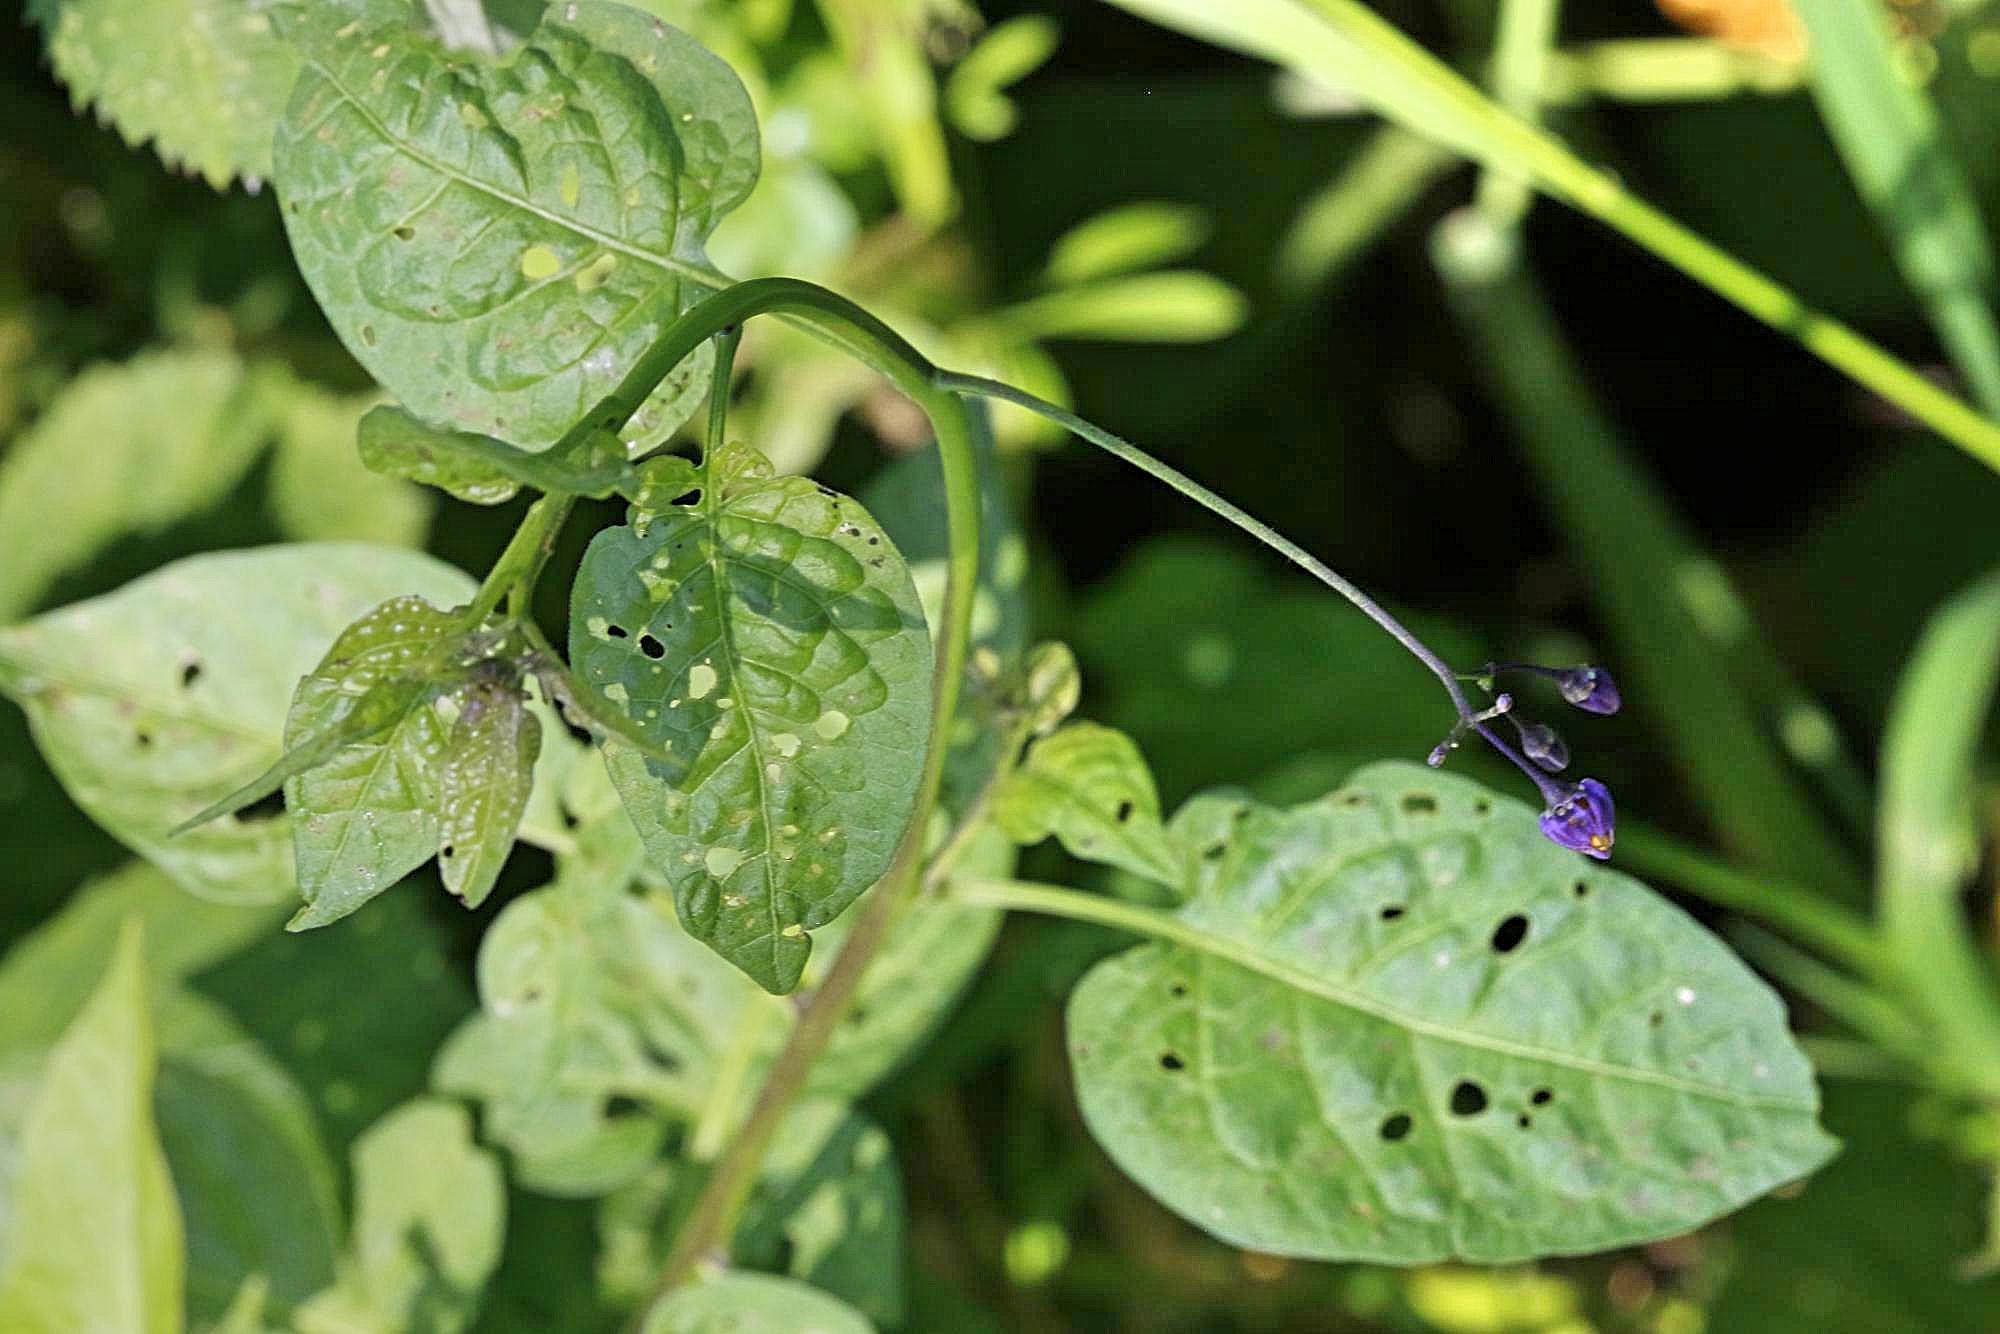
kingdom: Plantae
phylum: Tracheophyta
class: Magnoliopsida
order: Solanales
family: Solanaceae
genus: Solanum
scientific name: Solanum dulcamara
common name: Climbing nightshade
